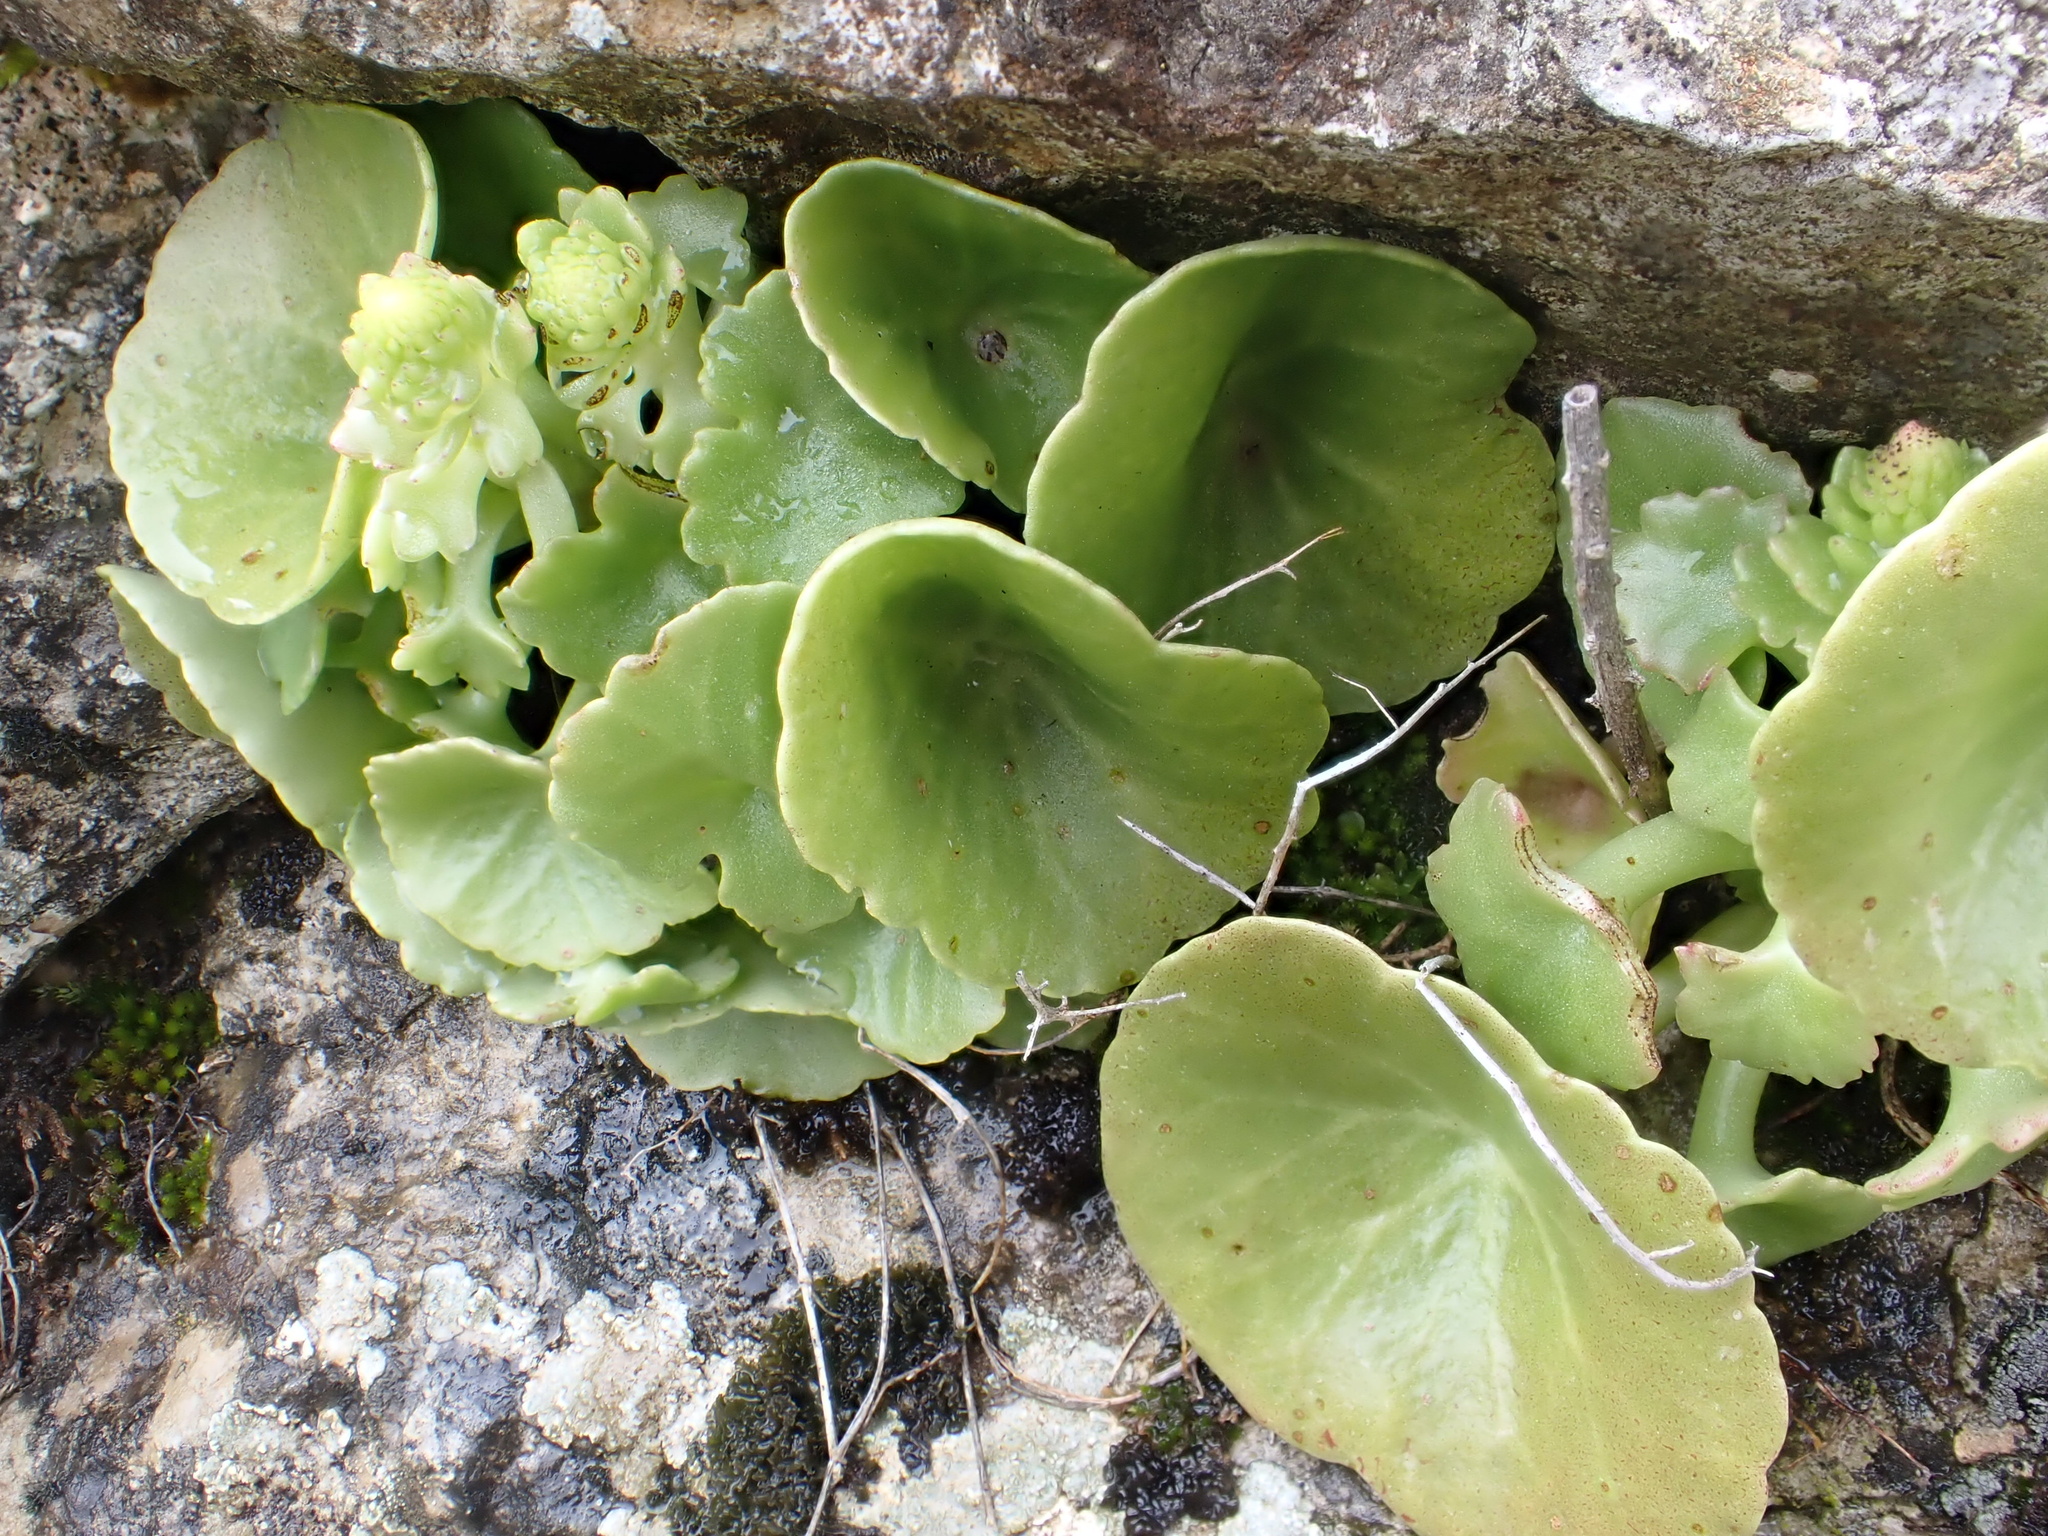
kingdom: Plantae
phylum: Tracheophyta
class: Magnoliopsida
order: Saxifragales
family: Crassulaceae
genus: Umbilicus
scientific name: Umbilicus rupestris
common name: Navelwort
